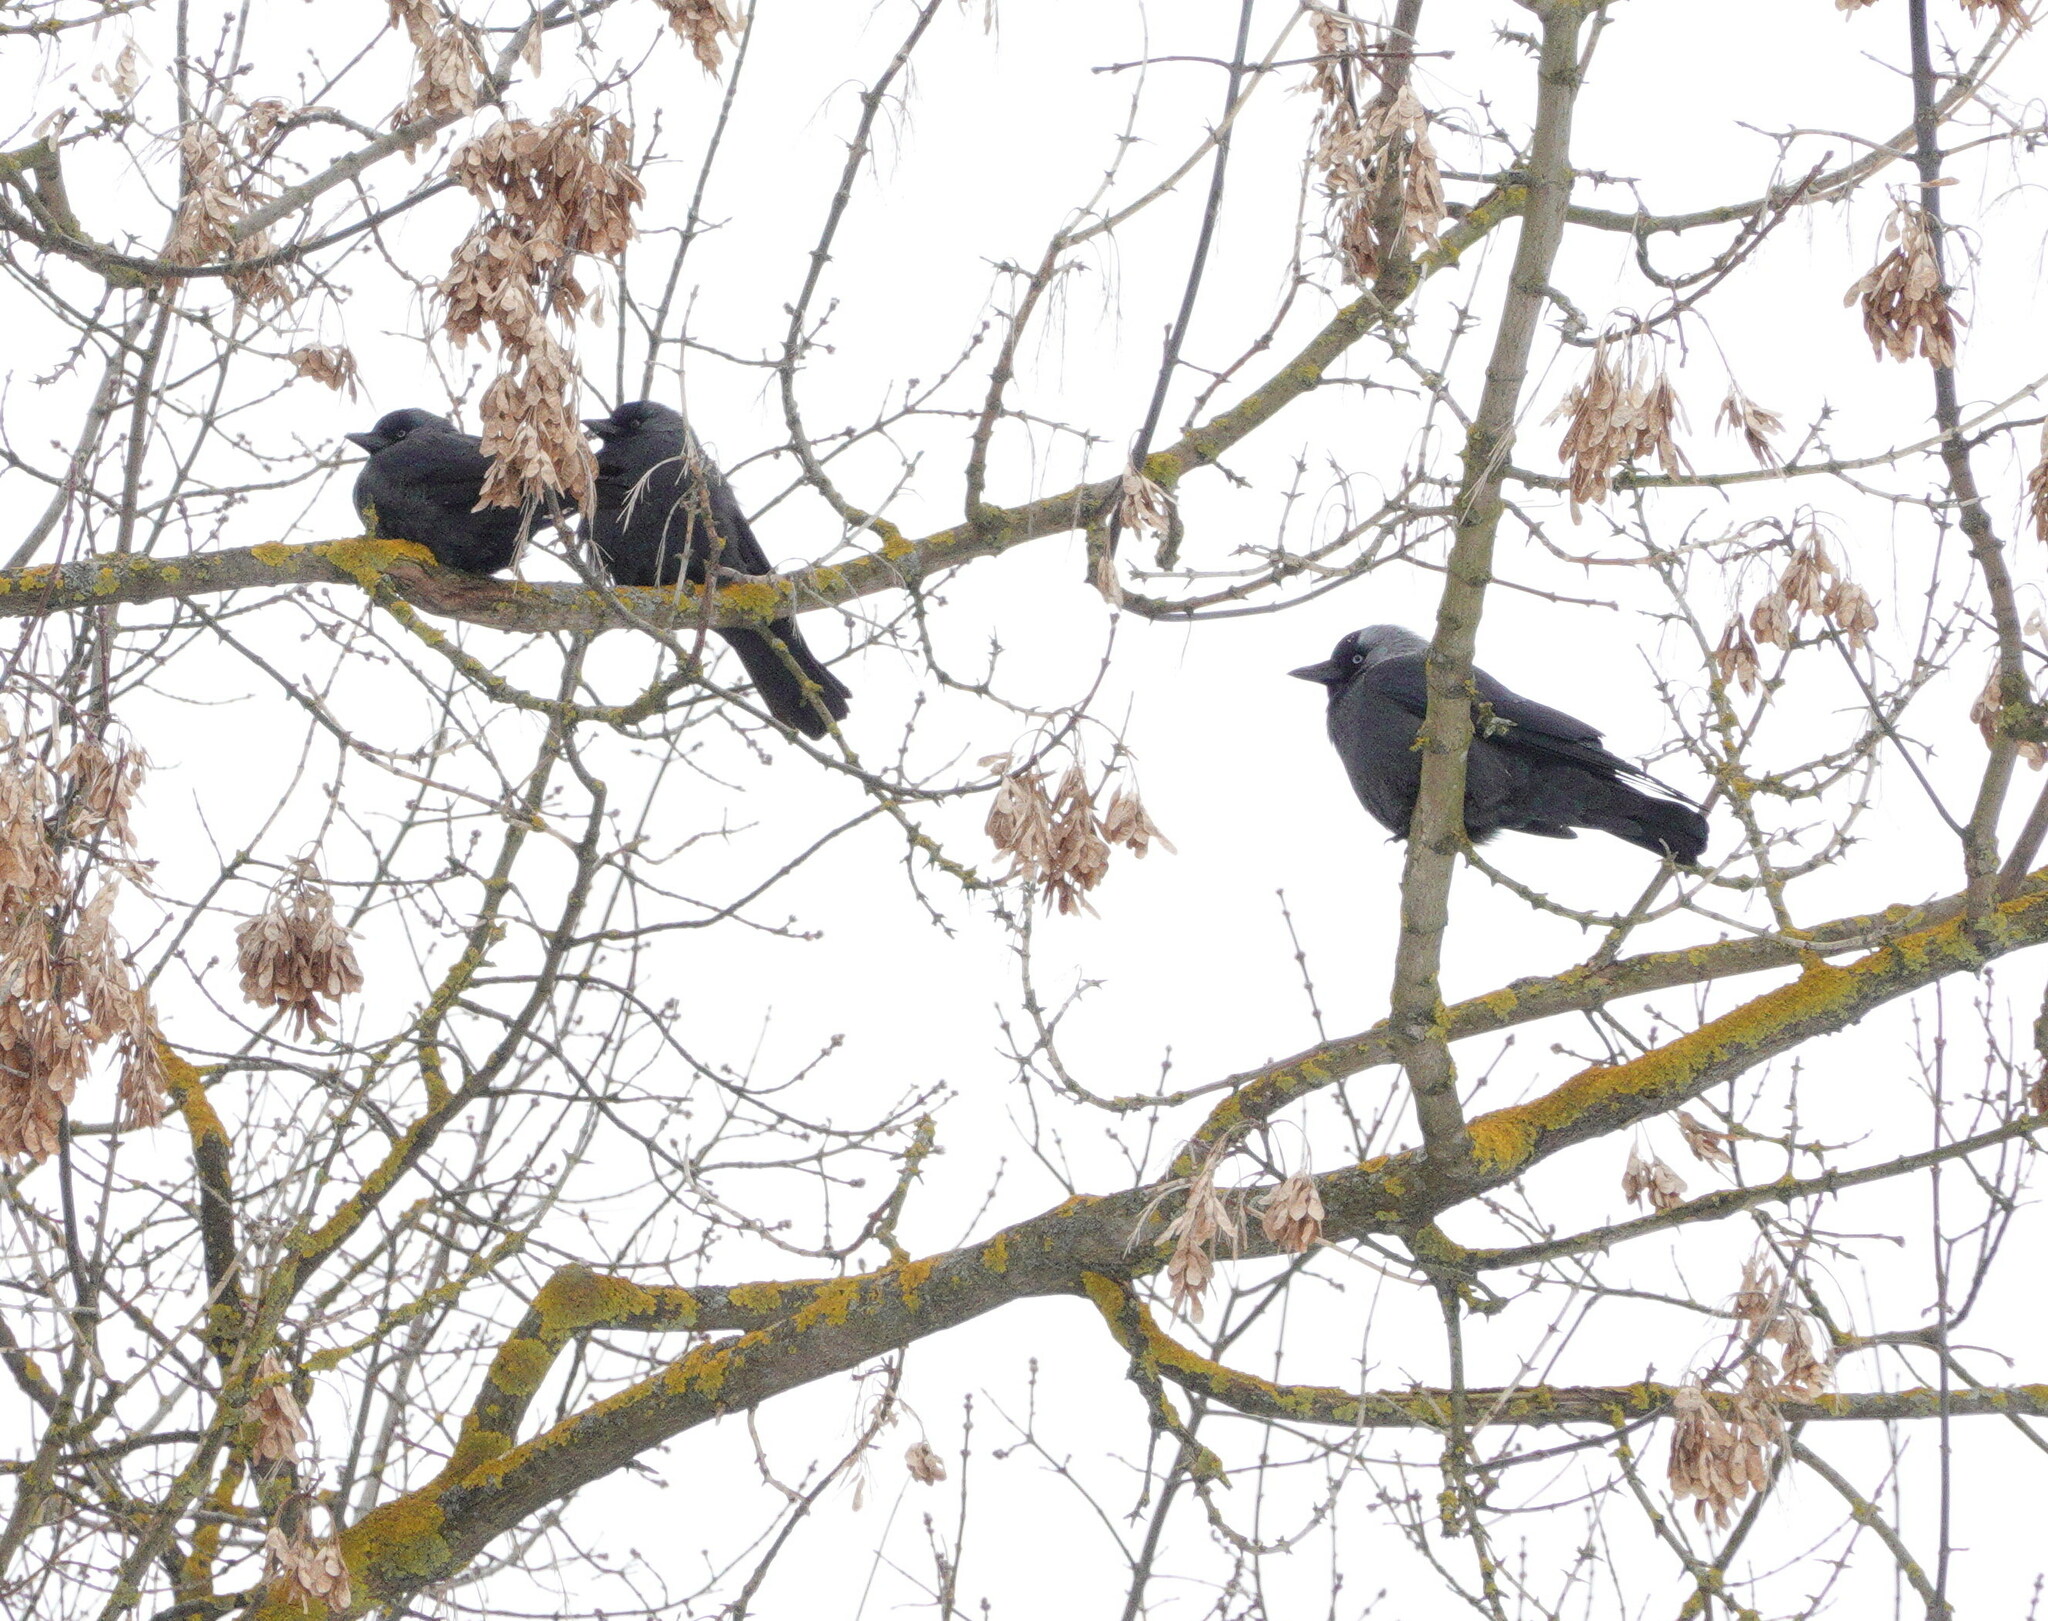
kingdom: Animalia
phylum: Chordata
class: Aves
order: Passeriformes
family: Corvidae
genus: Coloeus
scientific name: Coloeus monedula
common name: Western jackdaw
